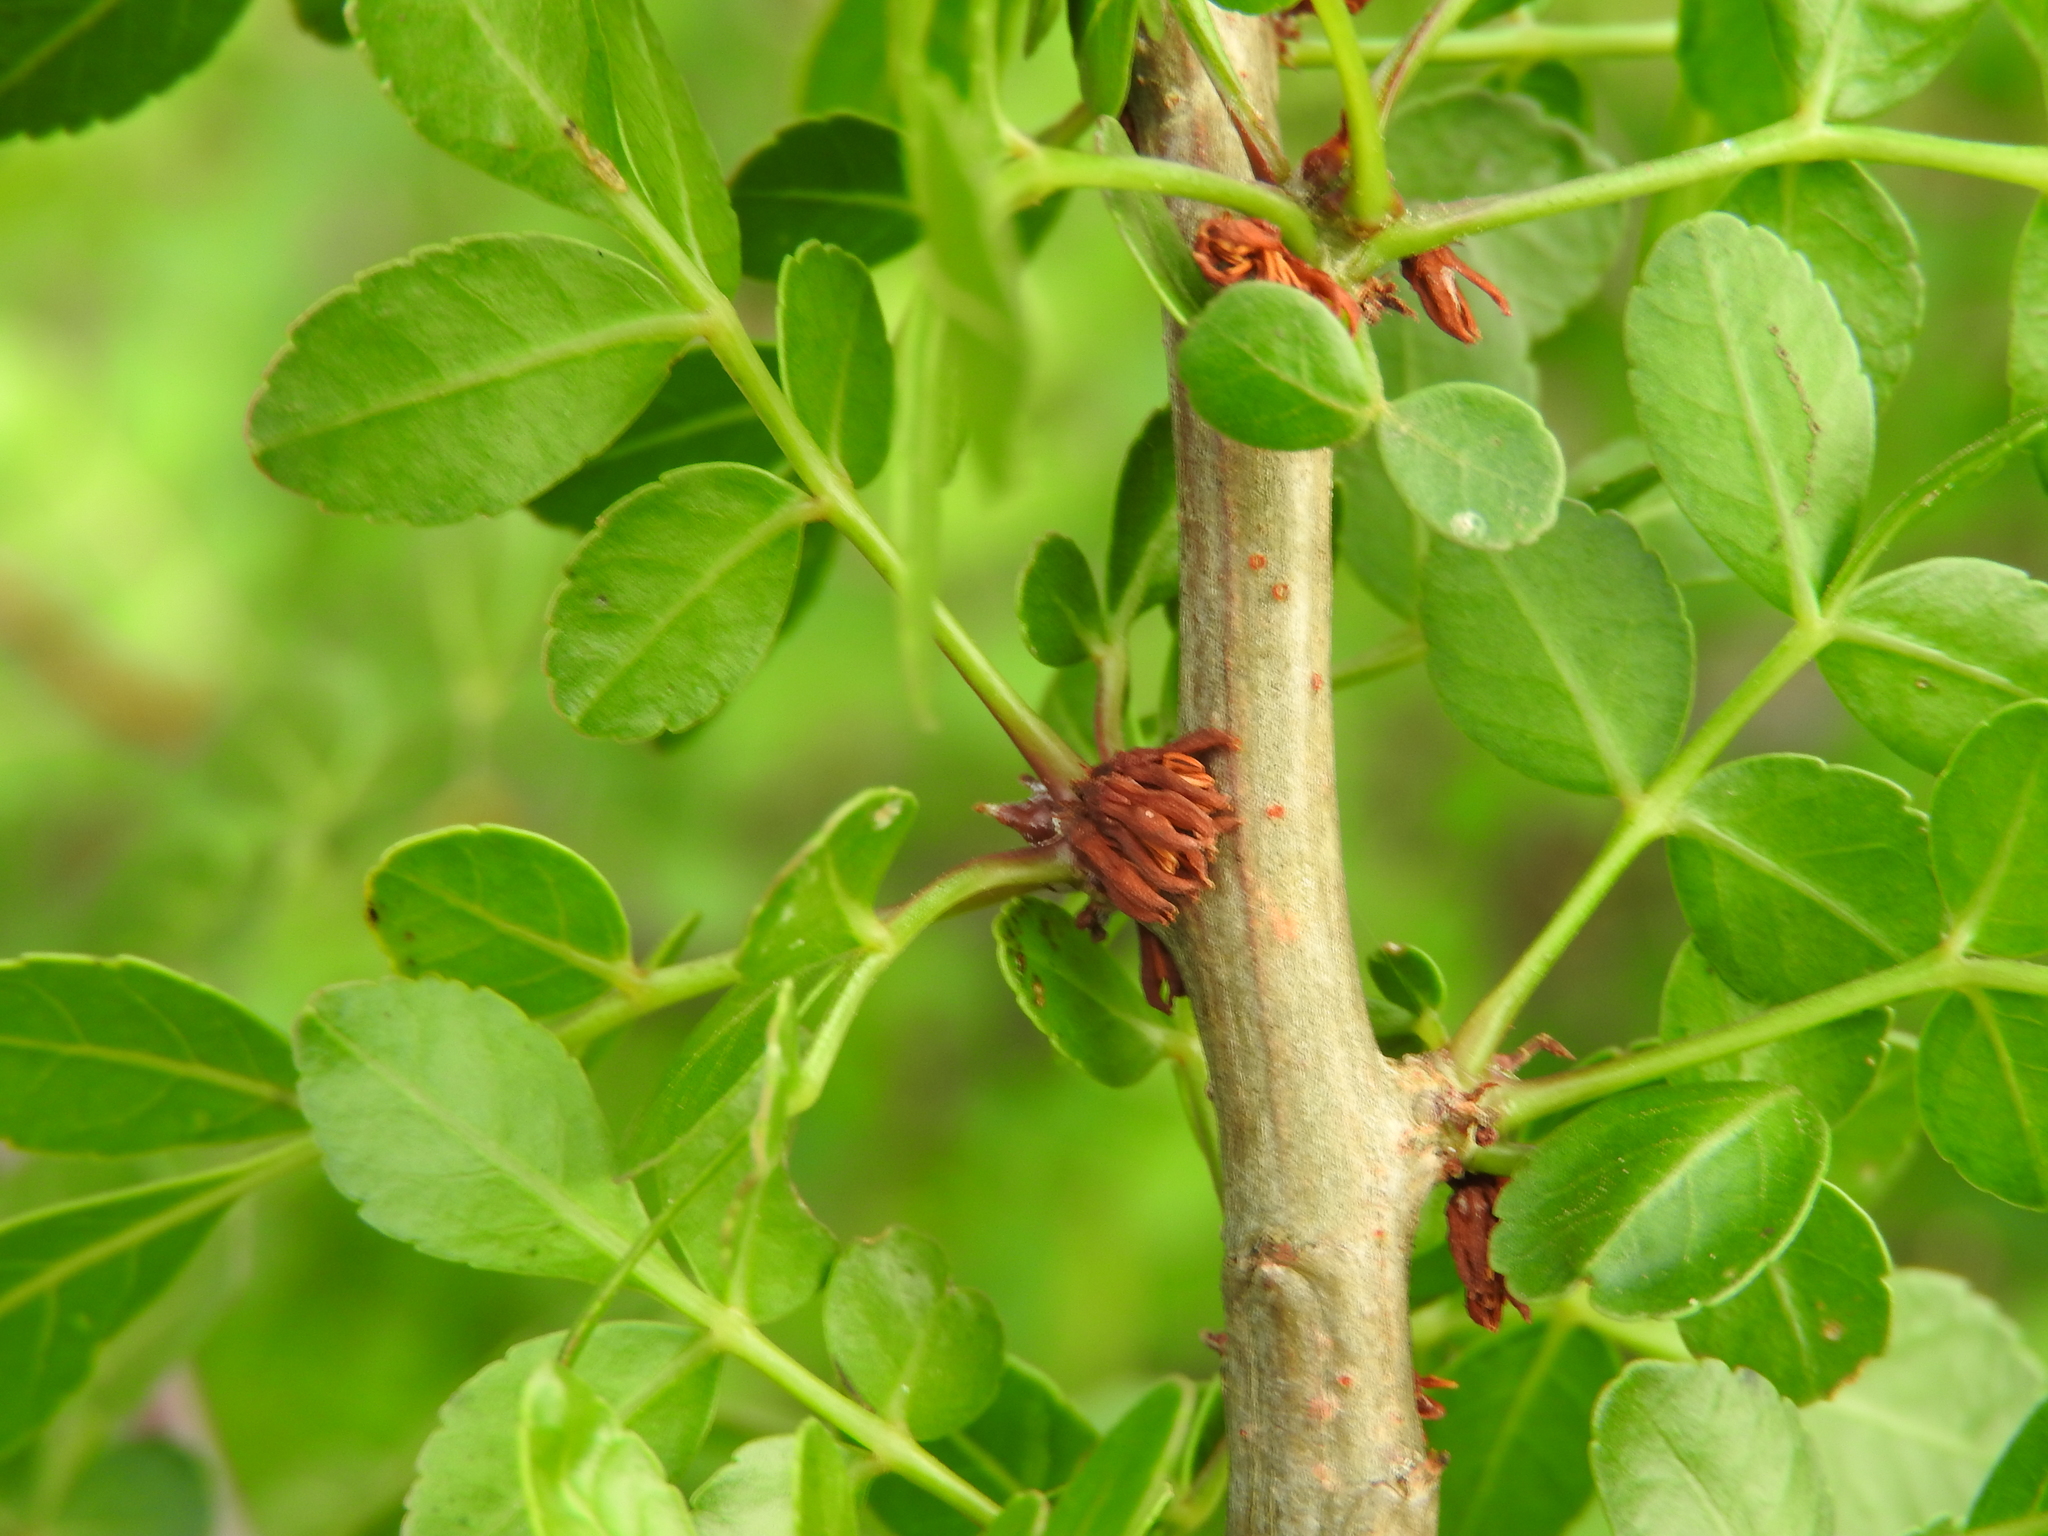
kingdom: Plantae
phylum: Tracheophyta
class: Magnoliopsida
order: Sapindales
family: Burseraceae
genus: Bursera
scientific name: Bursera fagaroides
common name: Elephant tree
